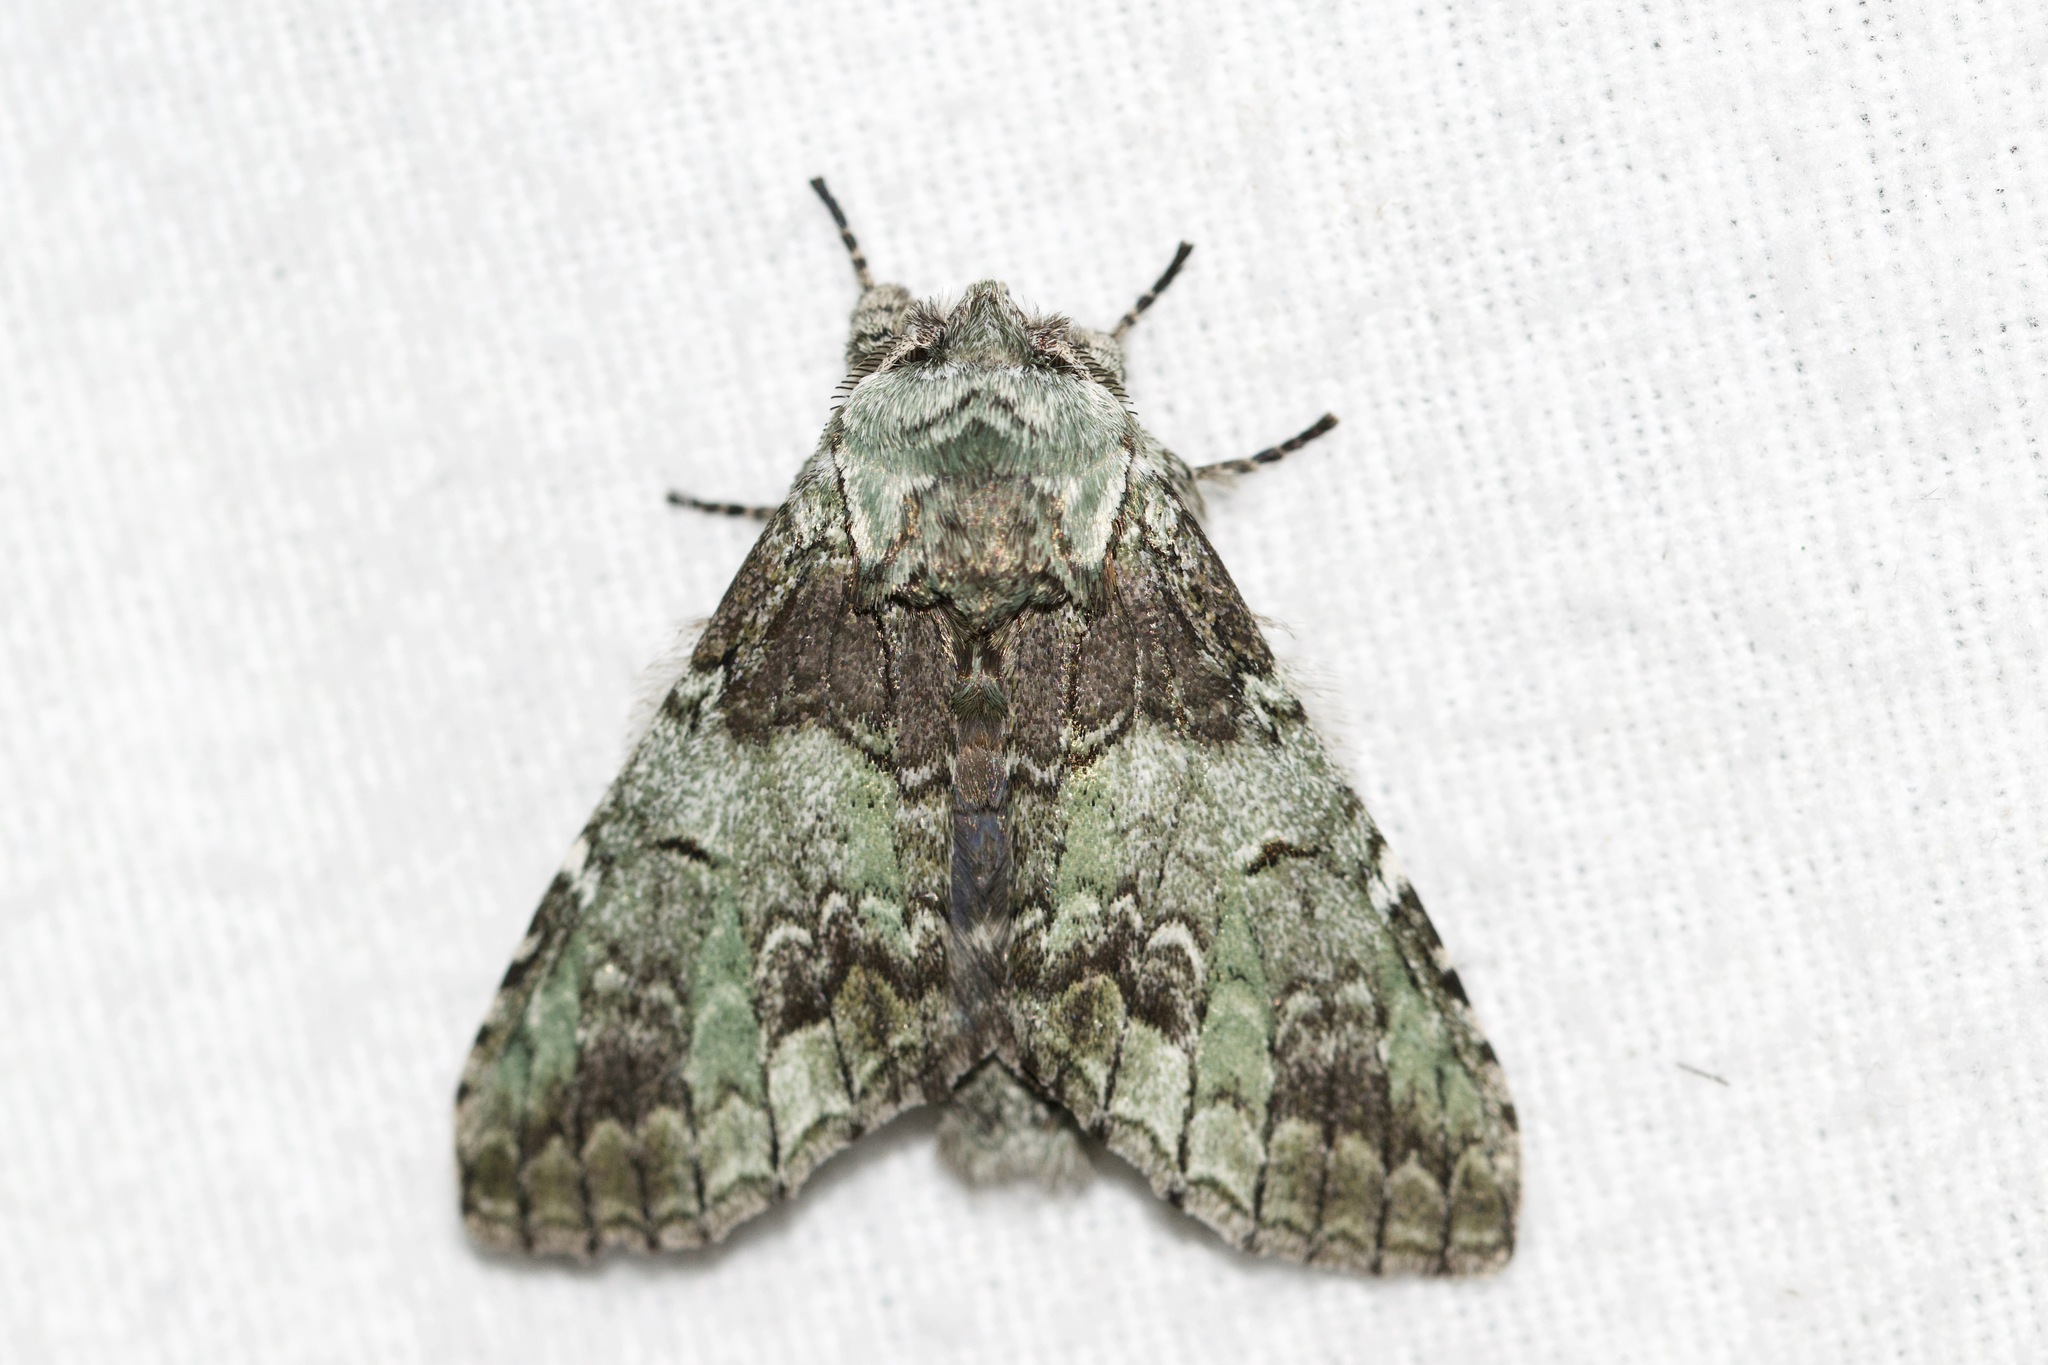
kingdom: Animalia
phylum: Arthropoda
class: Insecta
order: Lepidoptera
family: Notodontidae
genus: Macrurocampa
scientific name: Macrurocampa marthesia
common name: Mottled prominent
